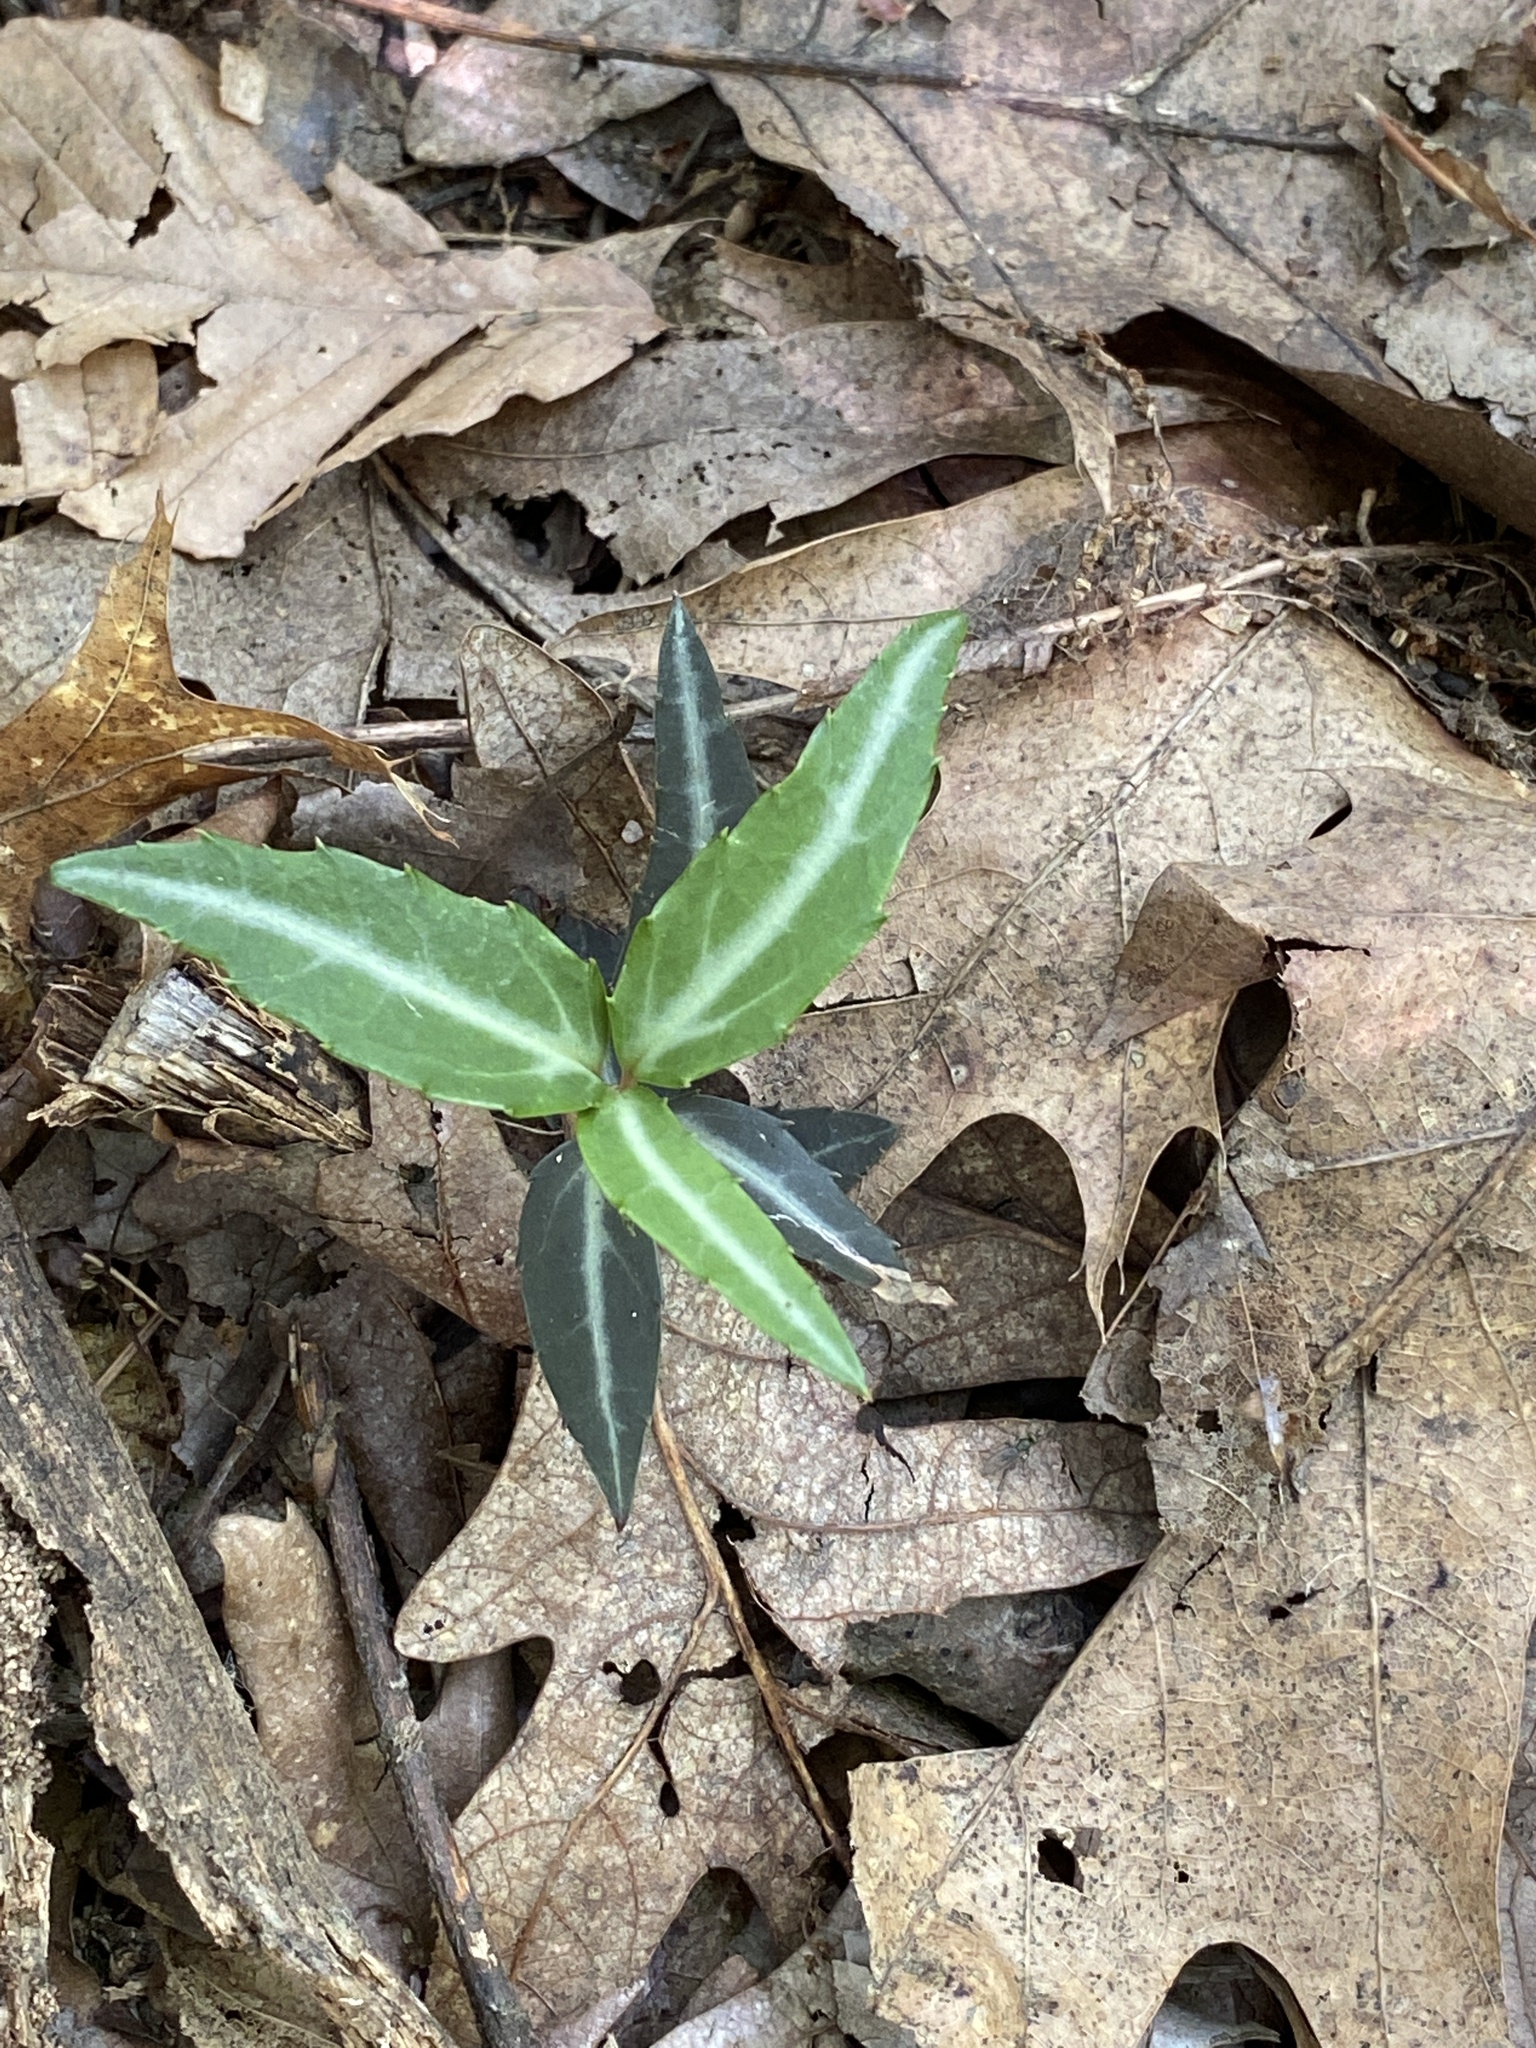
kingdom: Plantae
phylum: Tracheophyta
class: Magnoliopsida
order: Ericales
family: Ericaceae
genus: Chimaphila
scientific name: Chimaphila maculata
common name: Spotted pipsissewa
